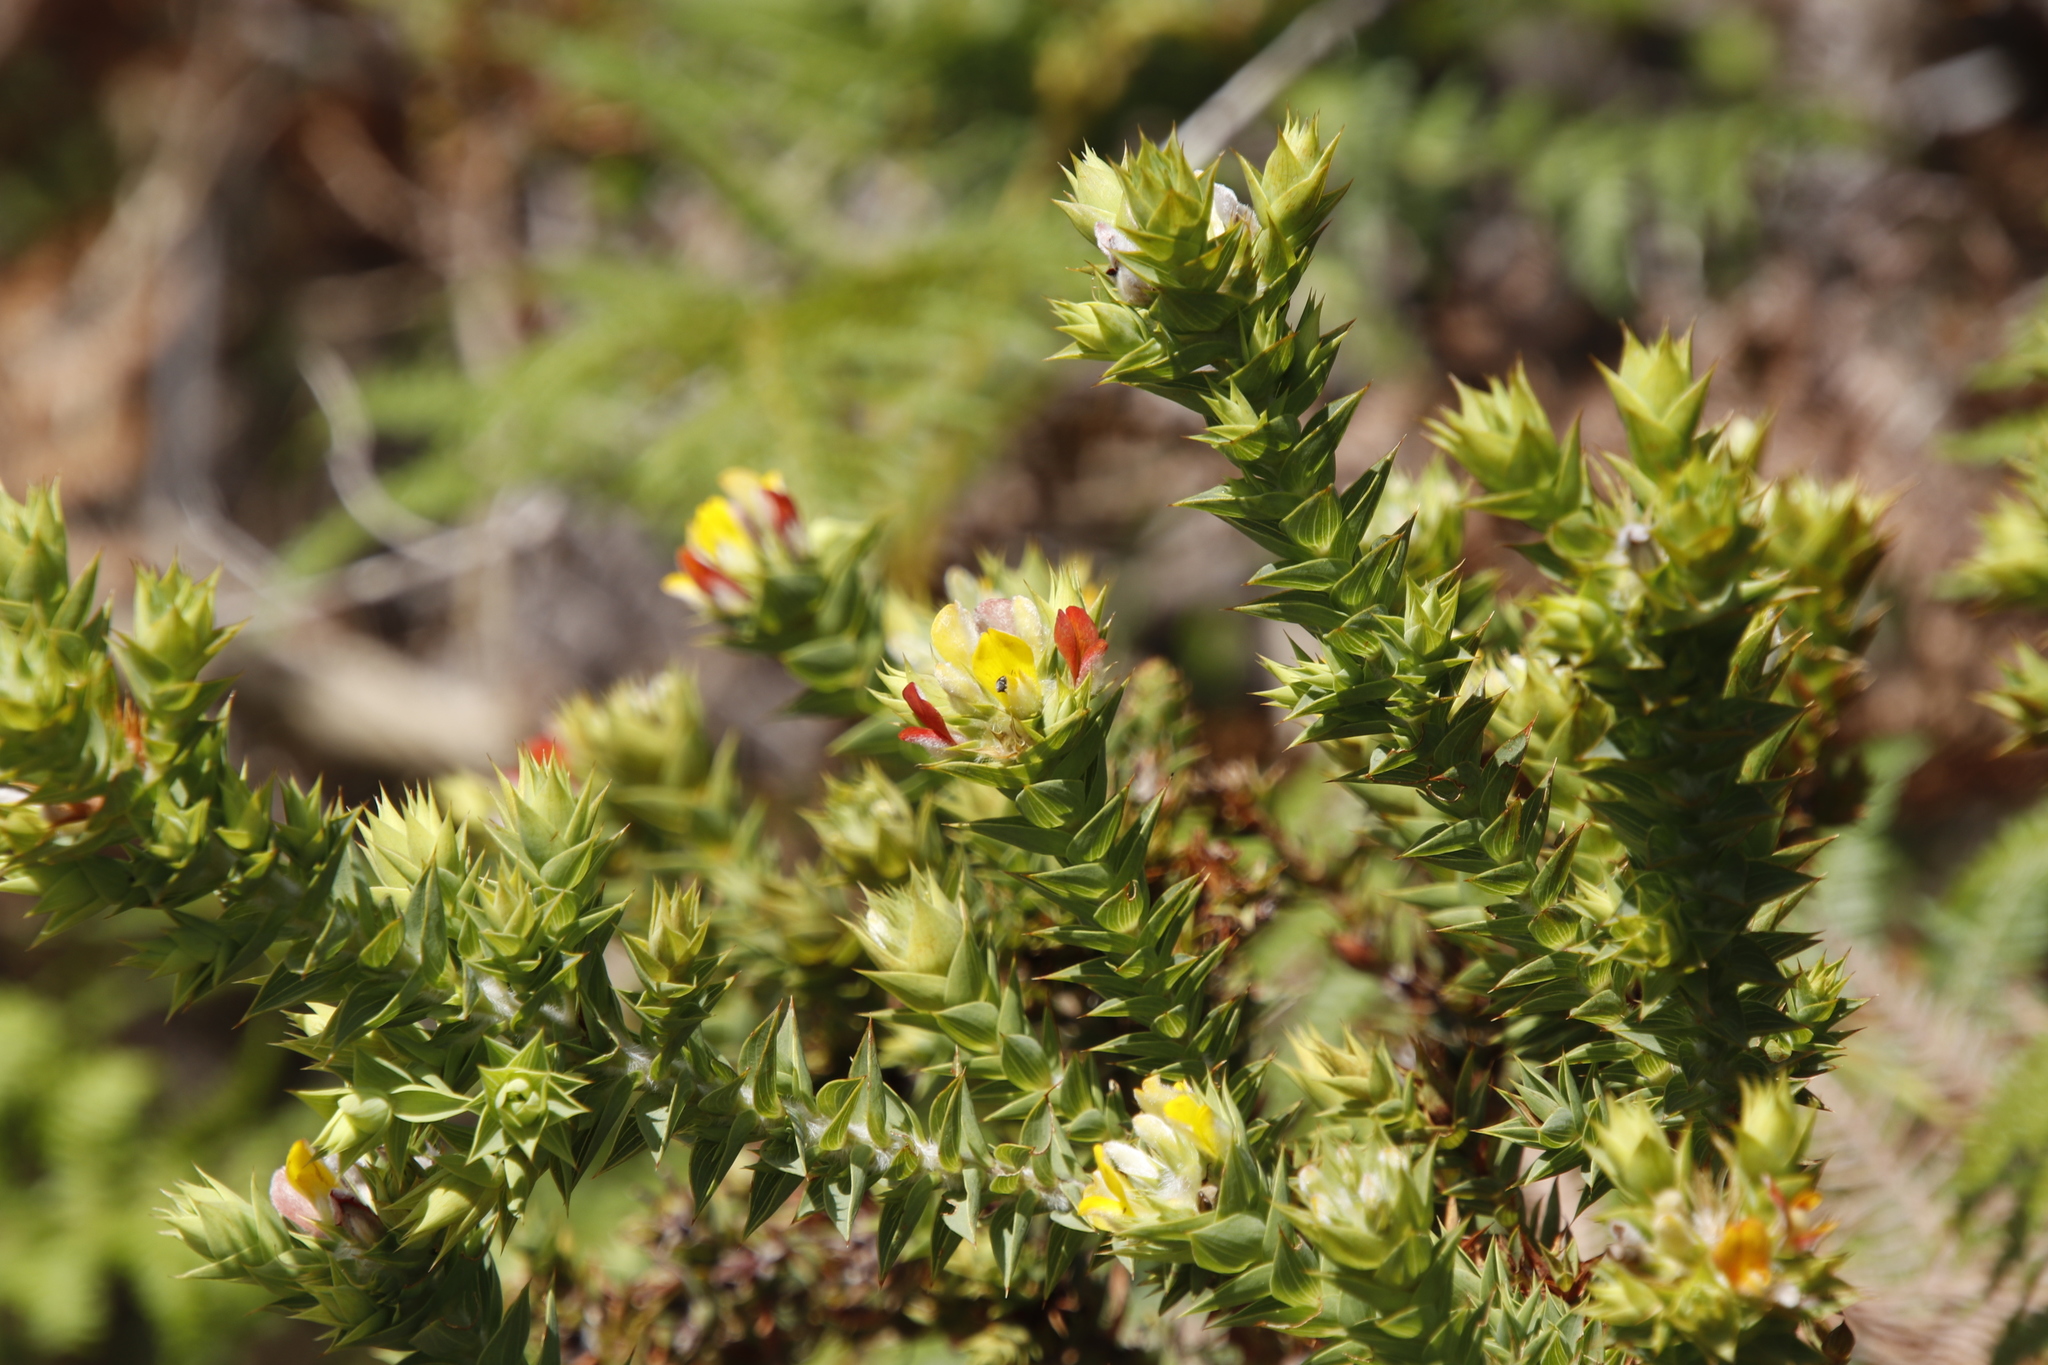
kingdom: Plantae
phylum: Tracheophyta
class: Magnoliopsida
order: Fabales
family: Fabaceae
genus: Aspalathus
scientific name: Aspalathus cordata
